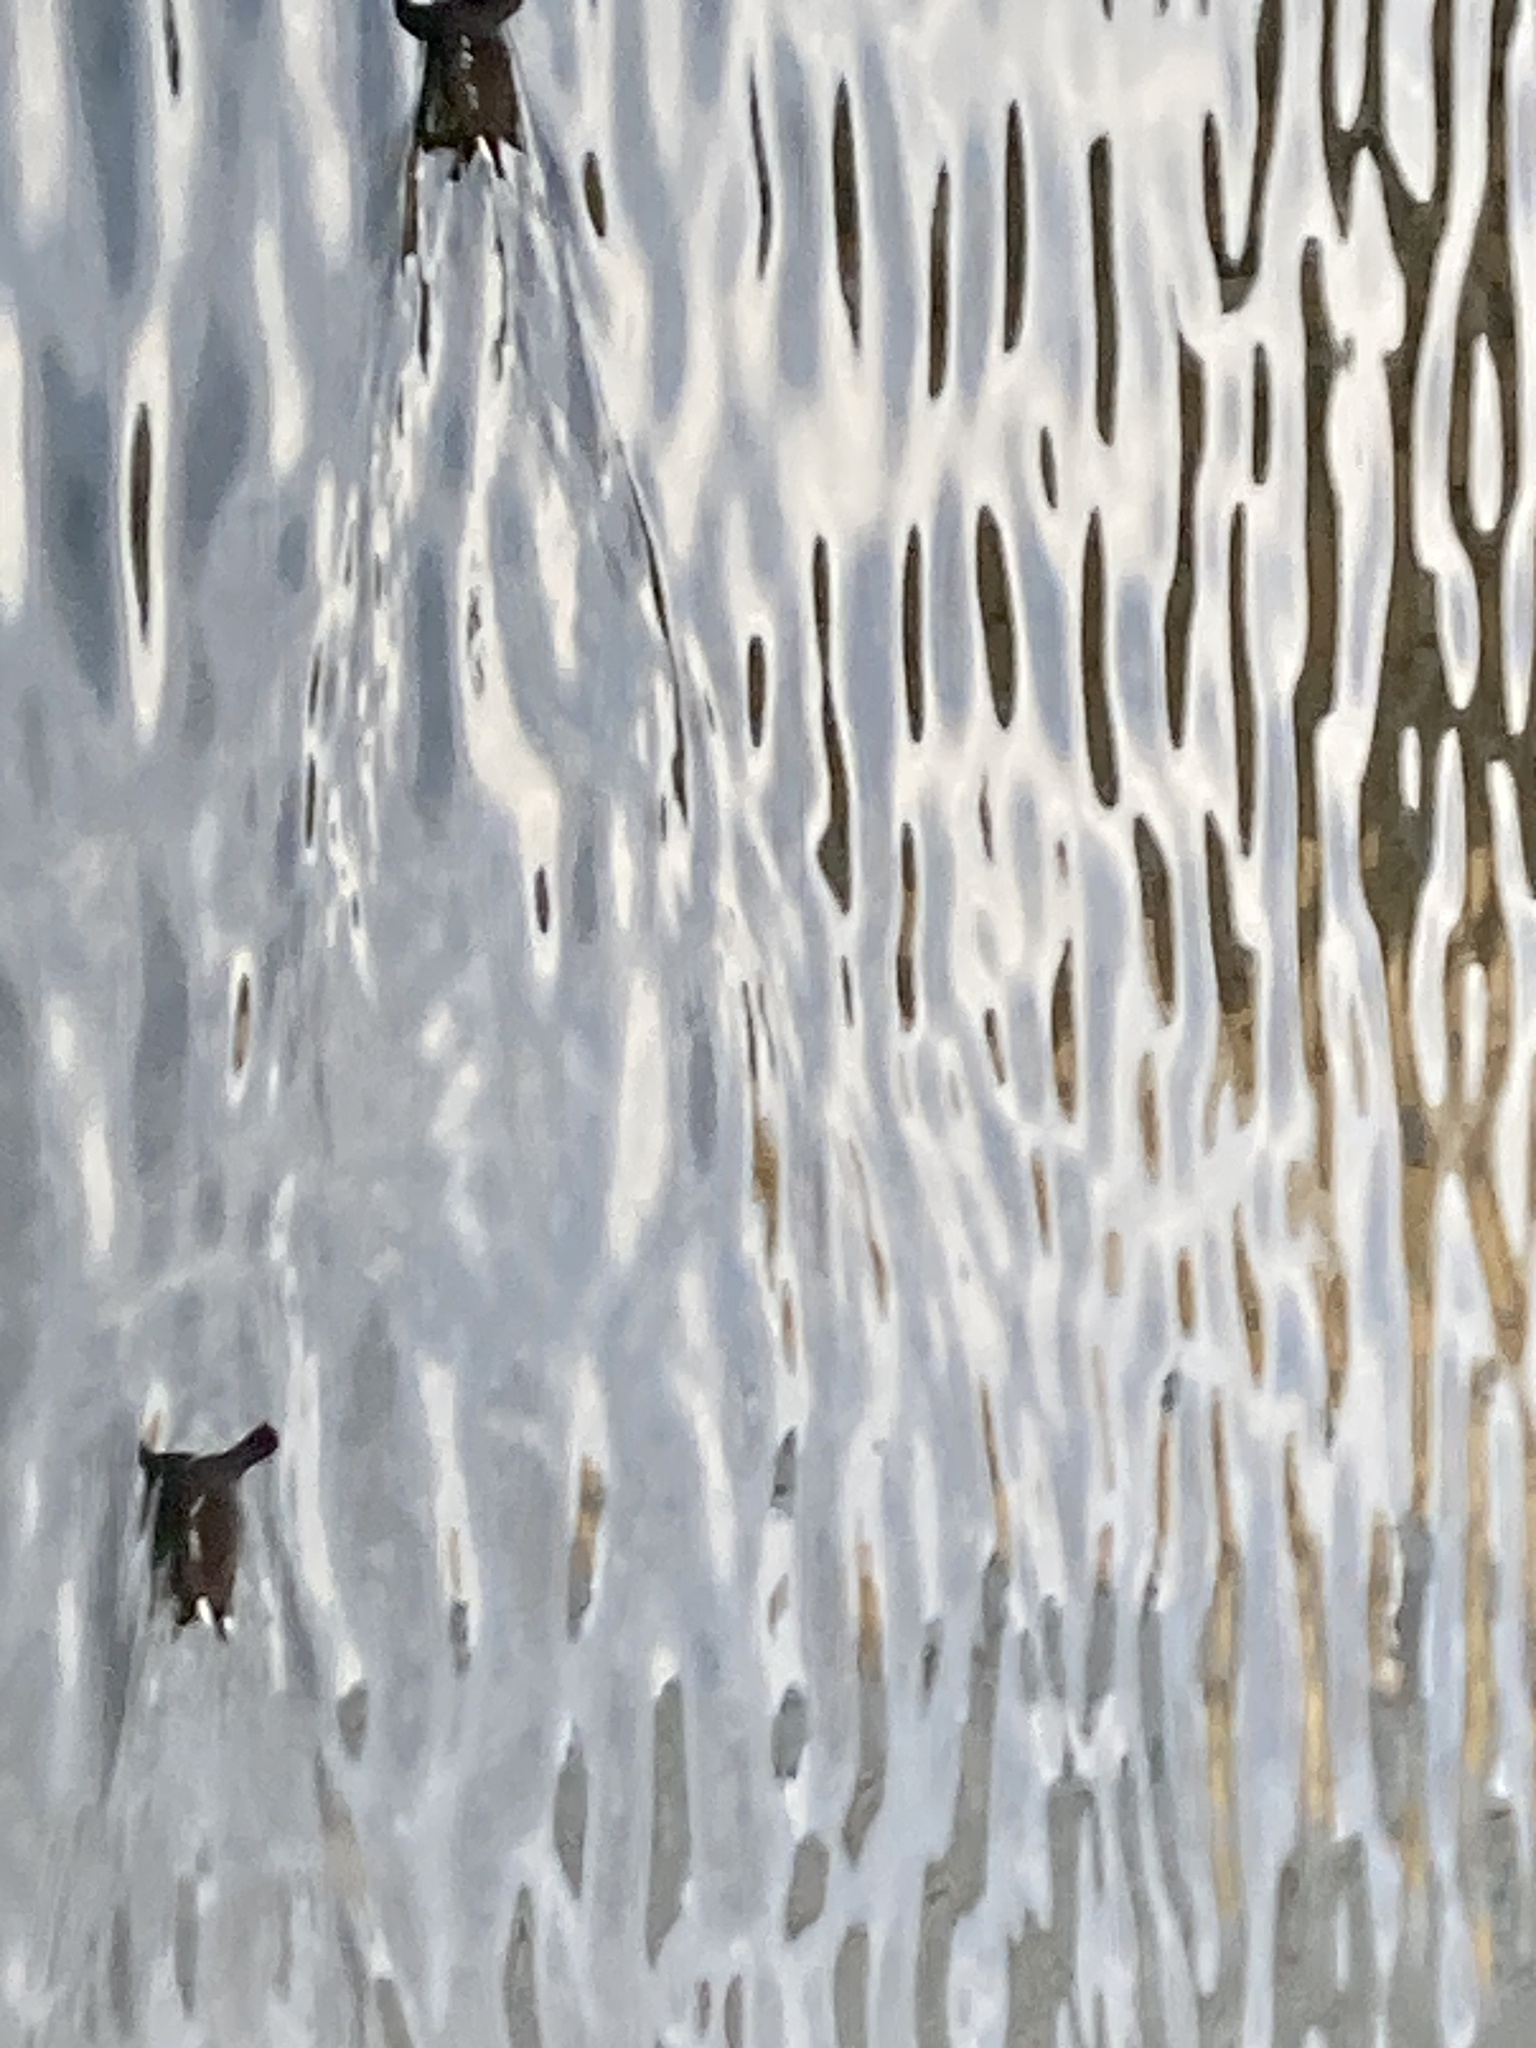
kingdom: Animalia
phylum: Chordata
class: Aves
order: Gruiformes
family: Rallidae
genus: Gallinula
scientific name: Gallinula chloropus
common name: Common moorhen
